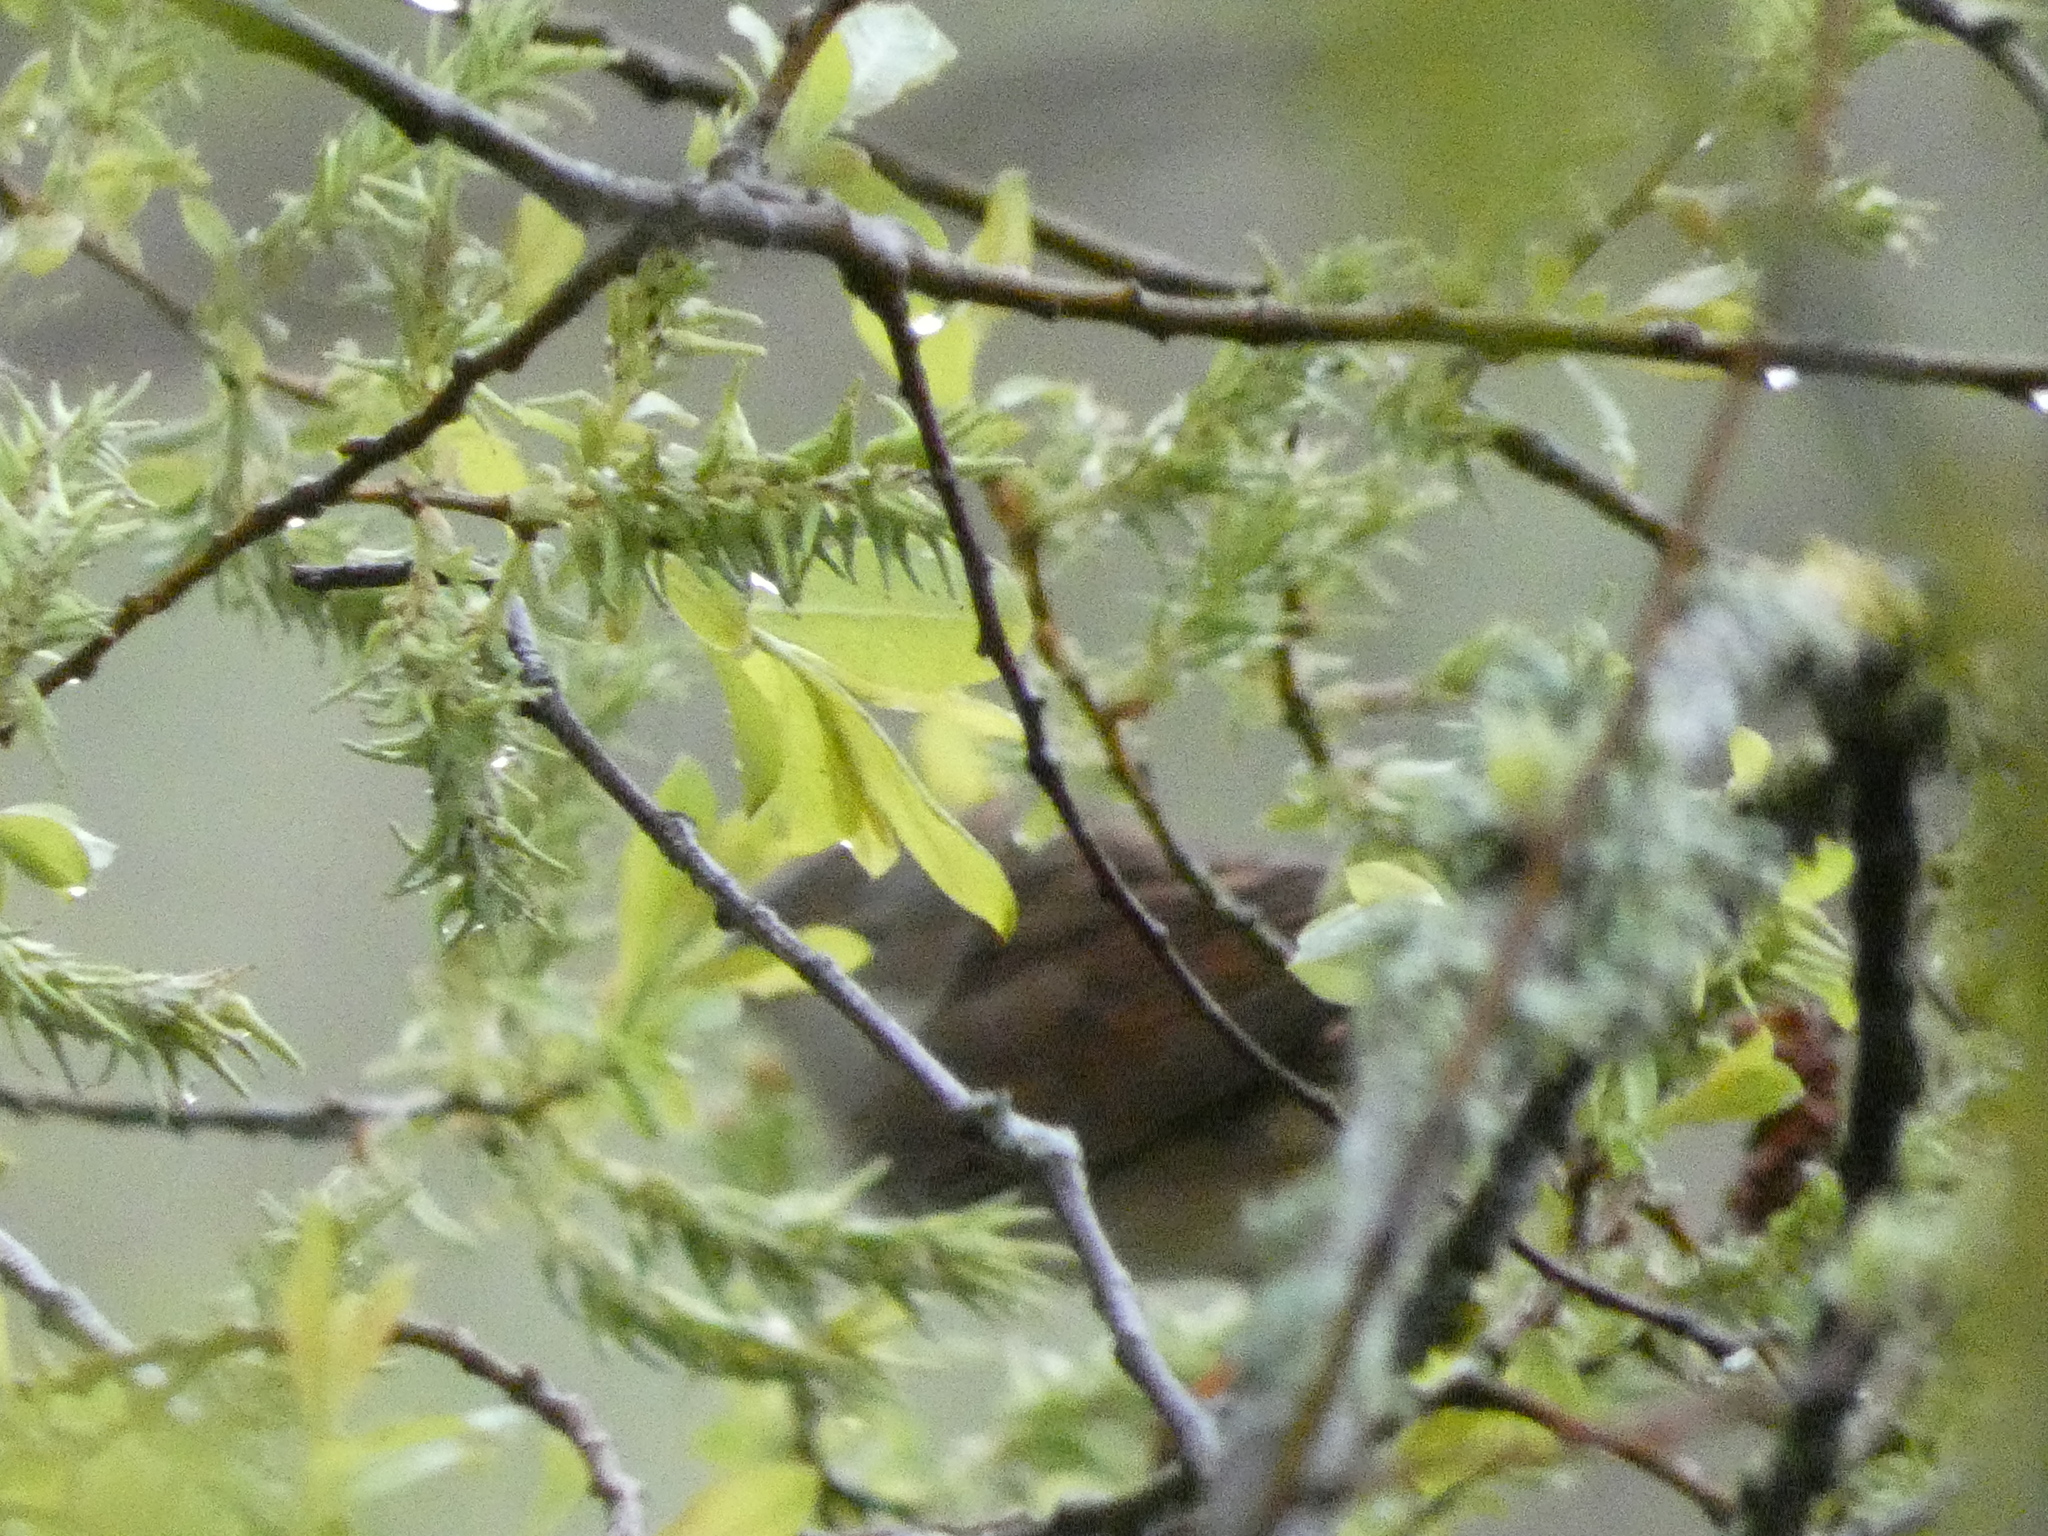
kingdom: Animalia
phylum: Chordata
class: Aves
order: Passeriformes
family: Prunellidae
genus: Prunella
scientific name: Prunella modularis
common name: Dunnock
